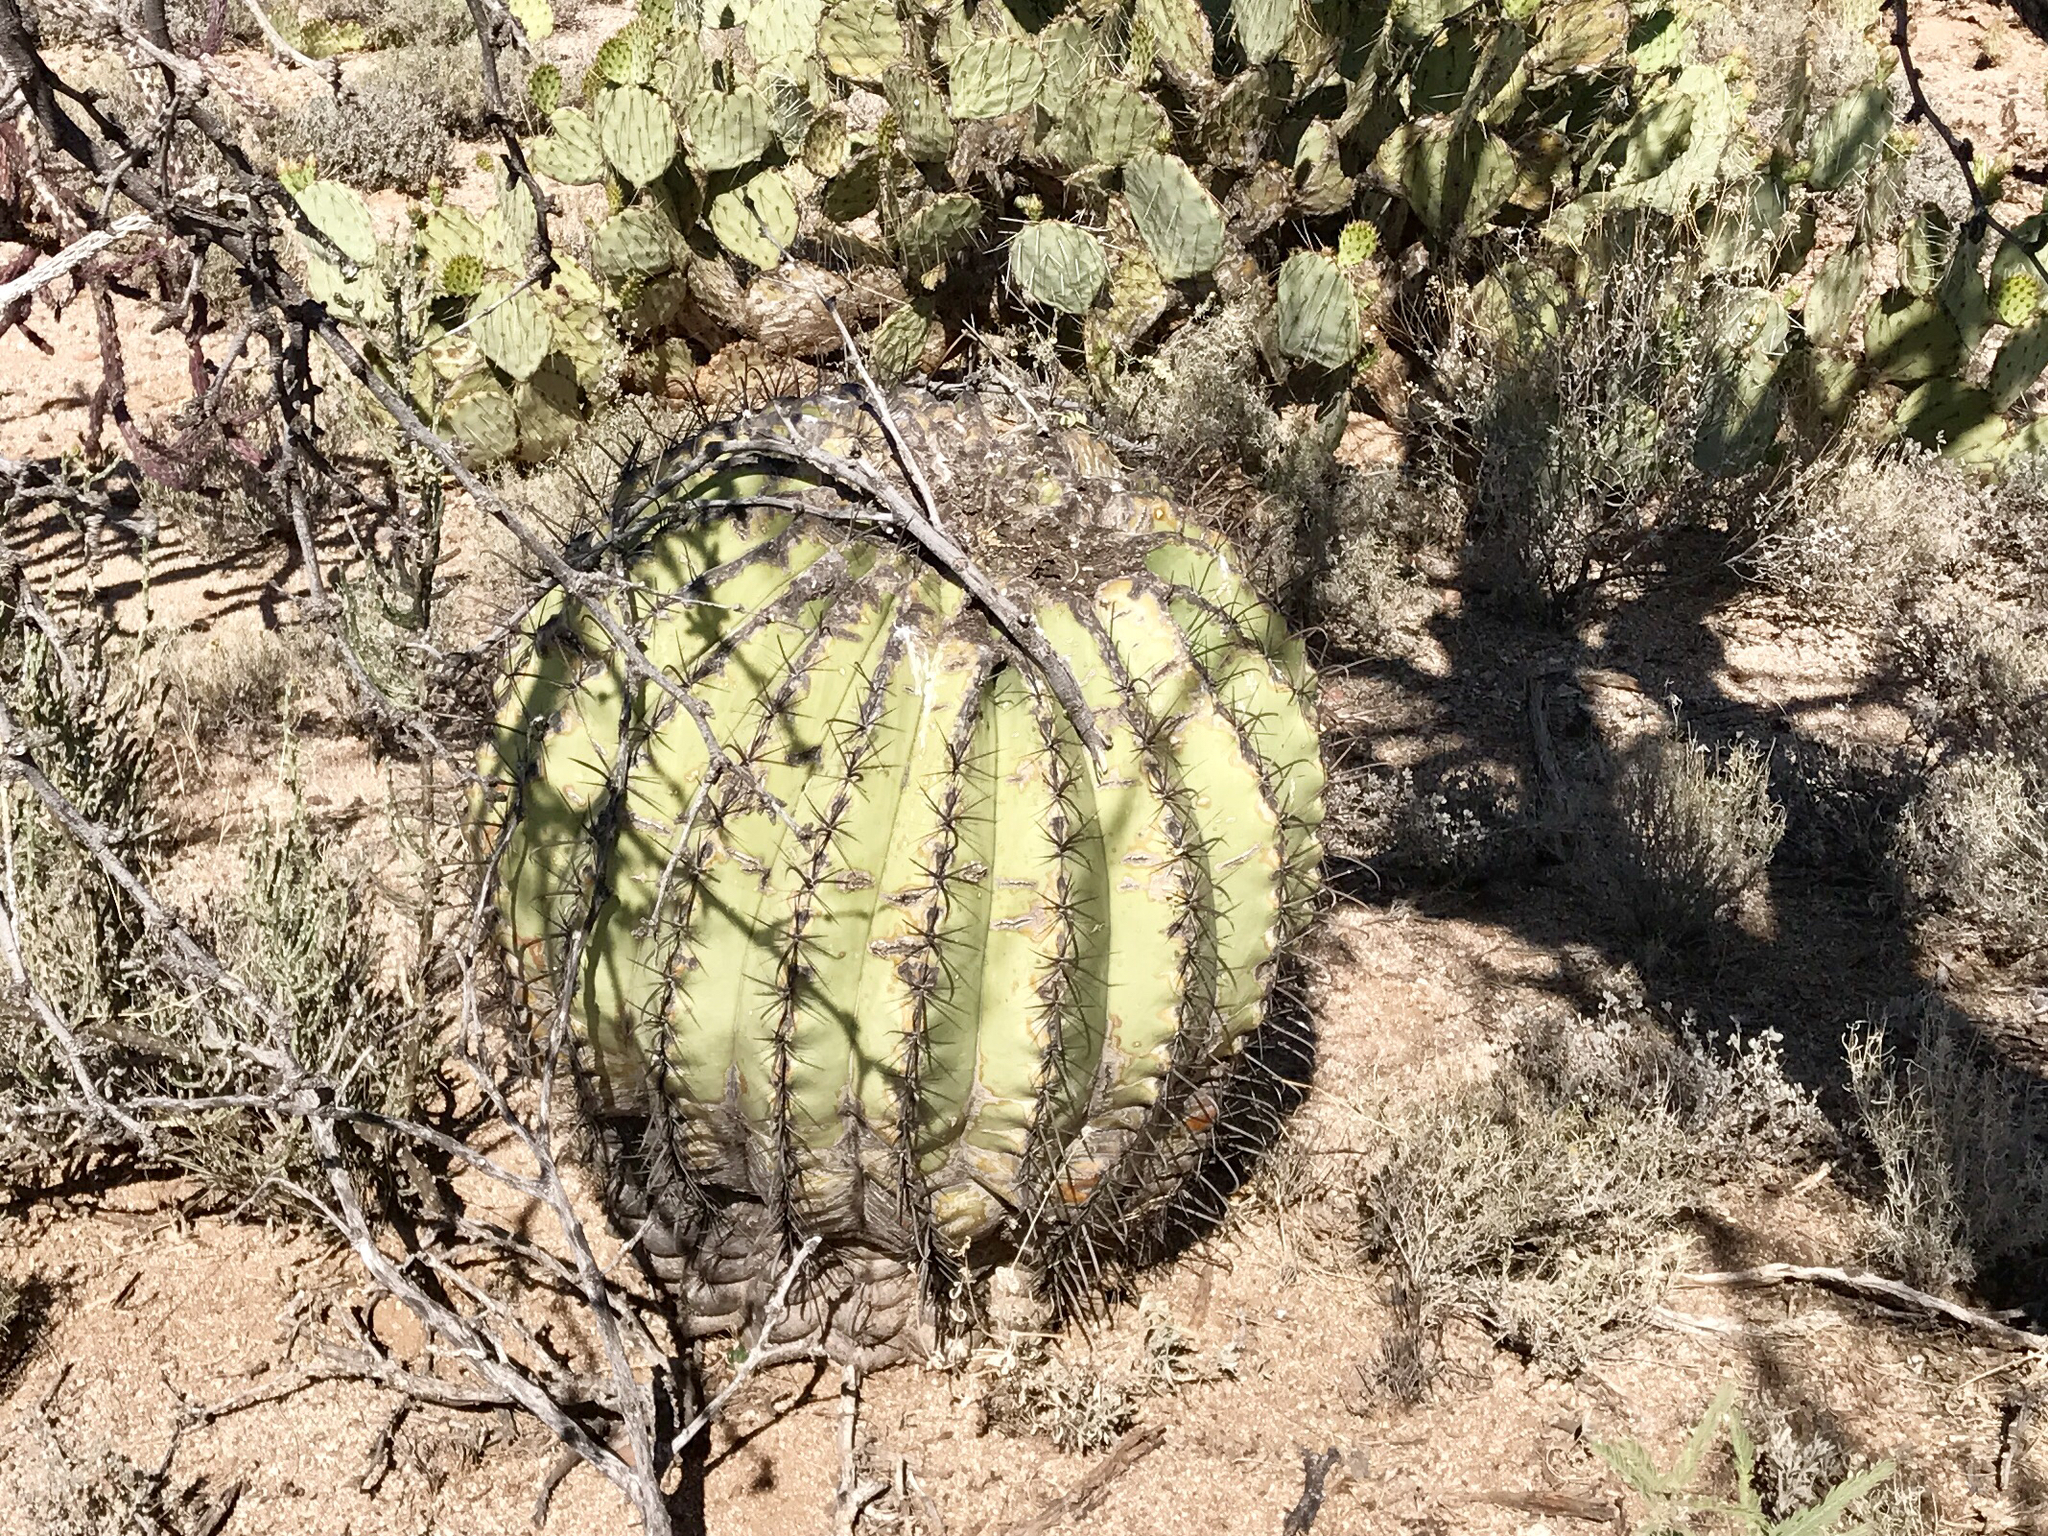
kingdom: Plantae
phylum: Tracheophyta
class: Magnoliopsida
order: Caryophyllales
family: Cactaceae
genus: Ferocactus
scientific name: Ferocactus wislizeni
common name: Candy barrel cactus
